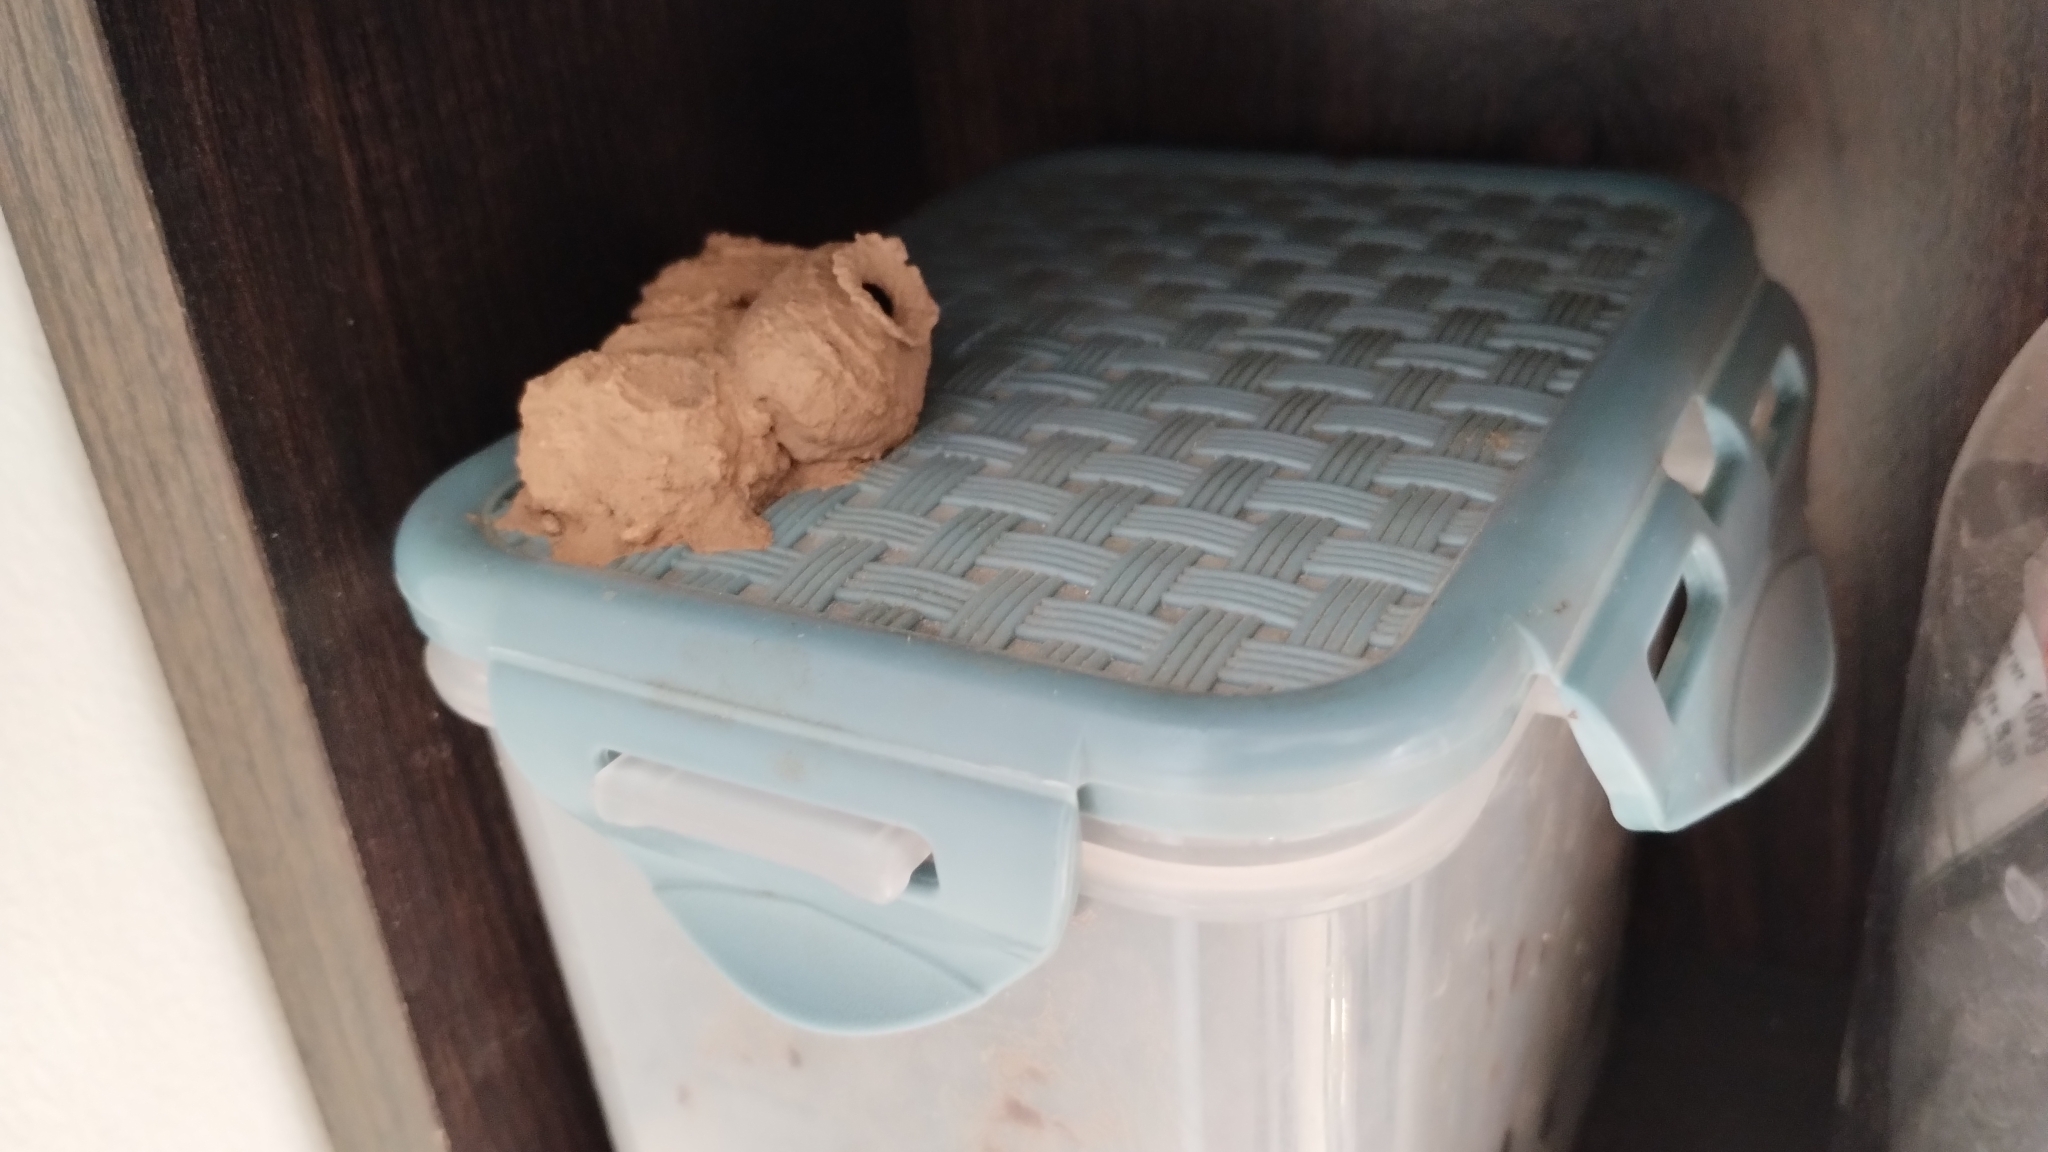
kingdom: Animalia
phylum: Arthropoda
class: Insecta
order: Hymenoptera
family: Vespidae
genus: Eumenes
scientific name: Eumenes
